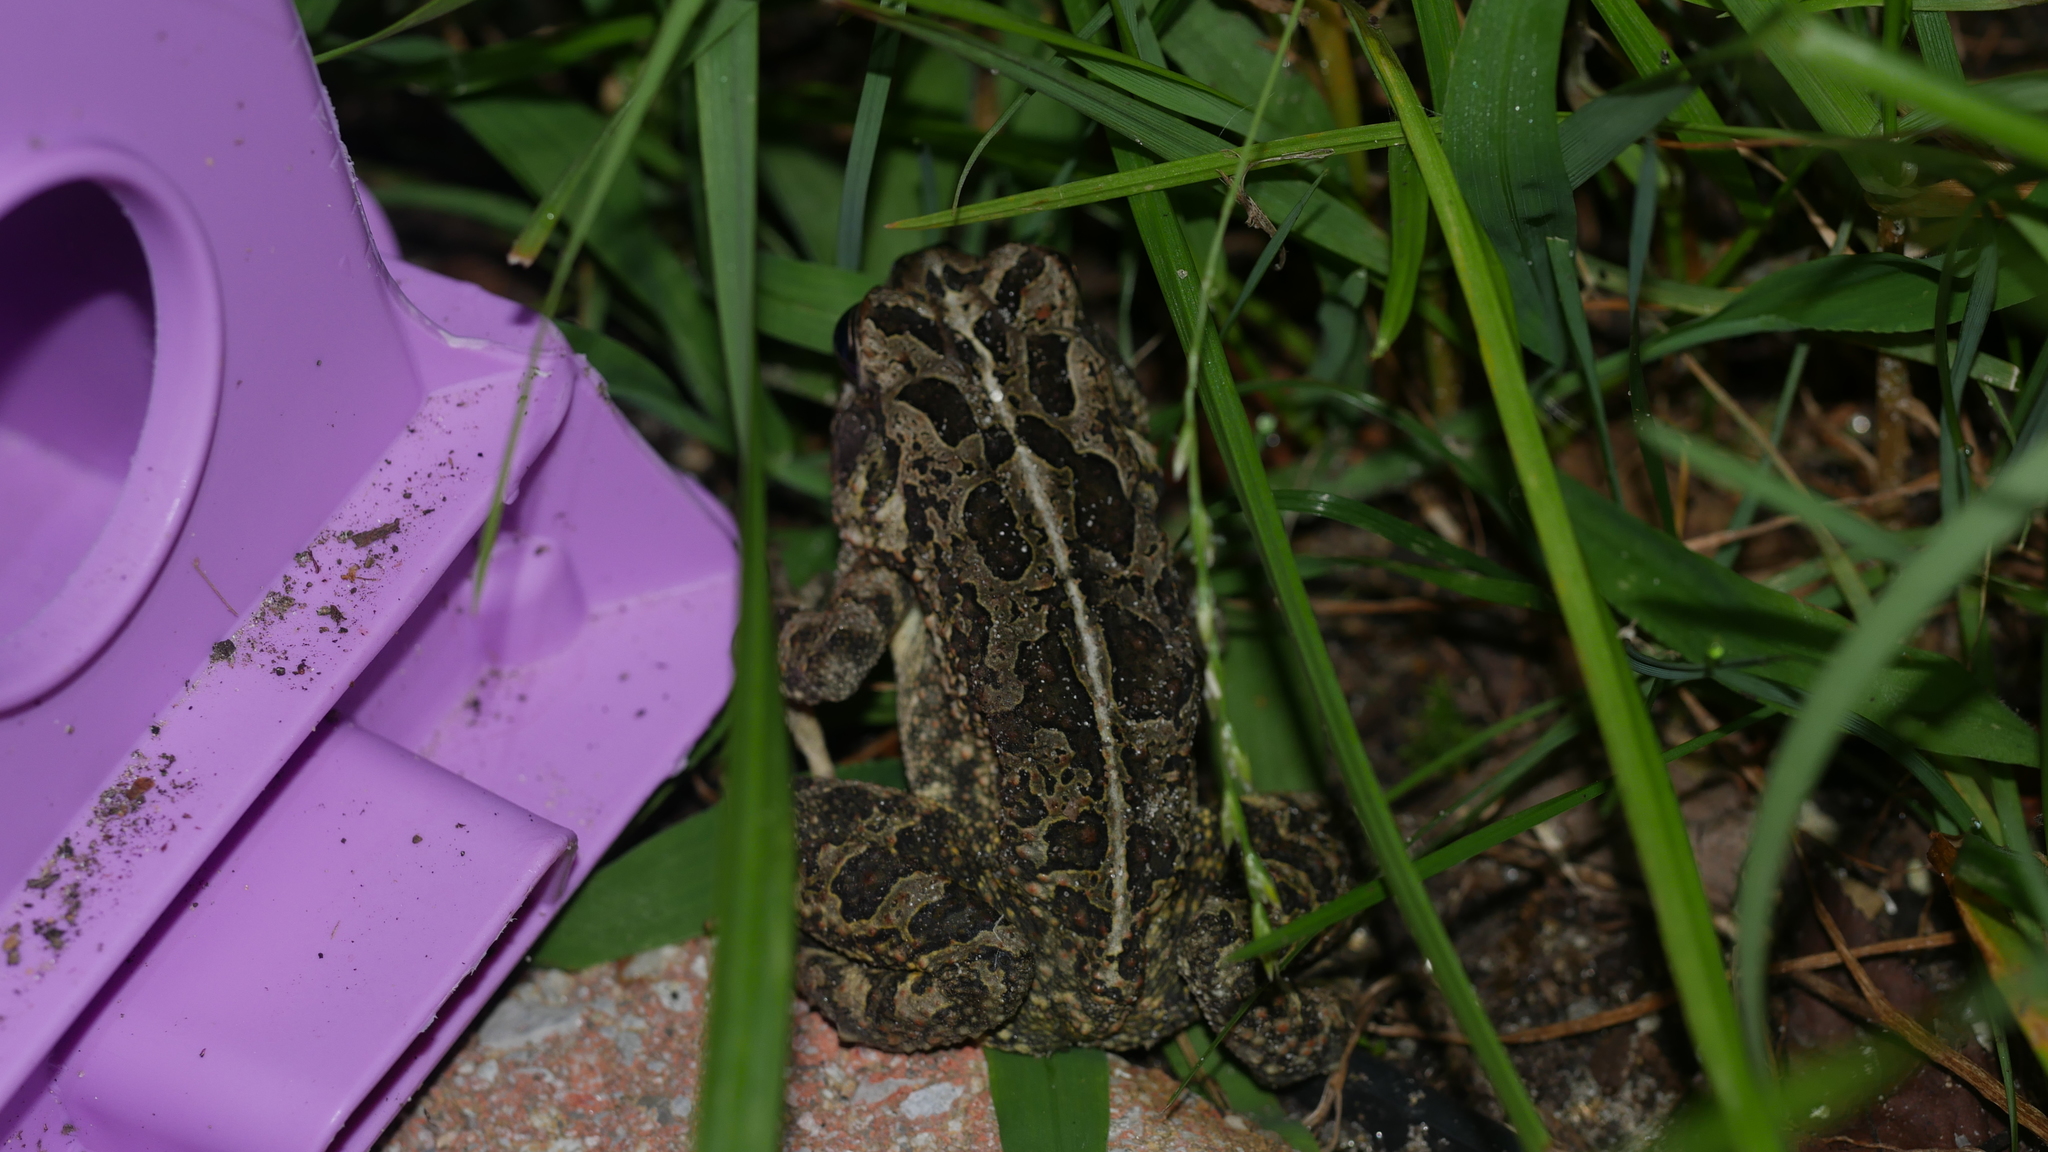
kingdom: Animalia
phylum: Chordata
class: Amphibia
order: Anura
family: Bufonidae
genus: Anaxyrus
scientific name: Anaxyrus fowleri
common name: Fowler's toad
